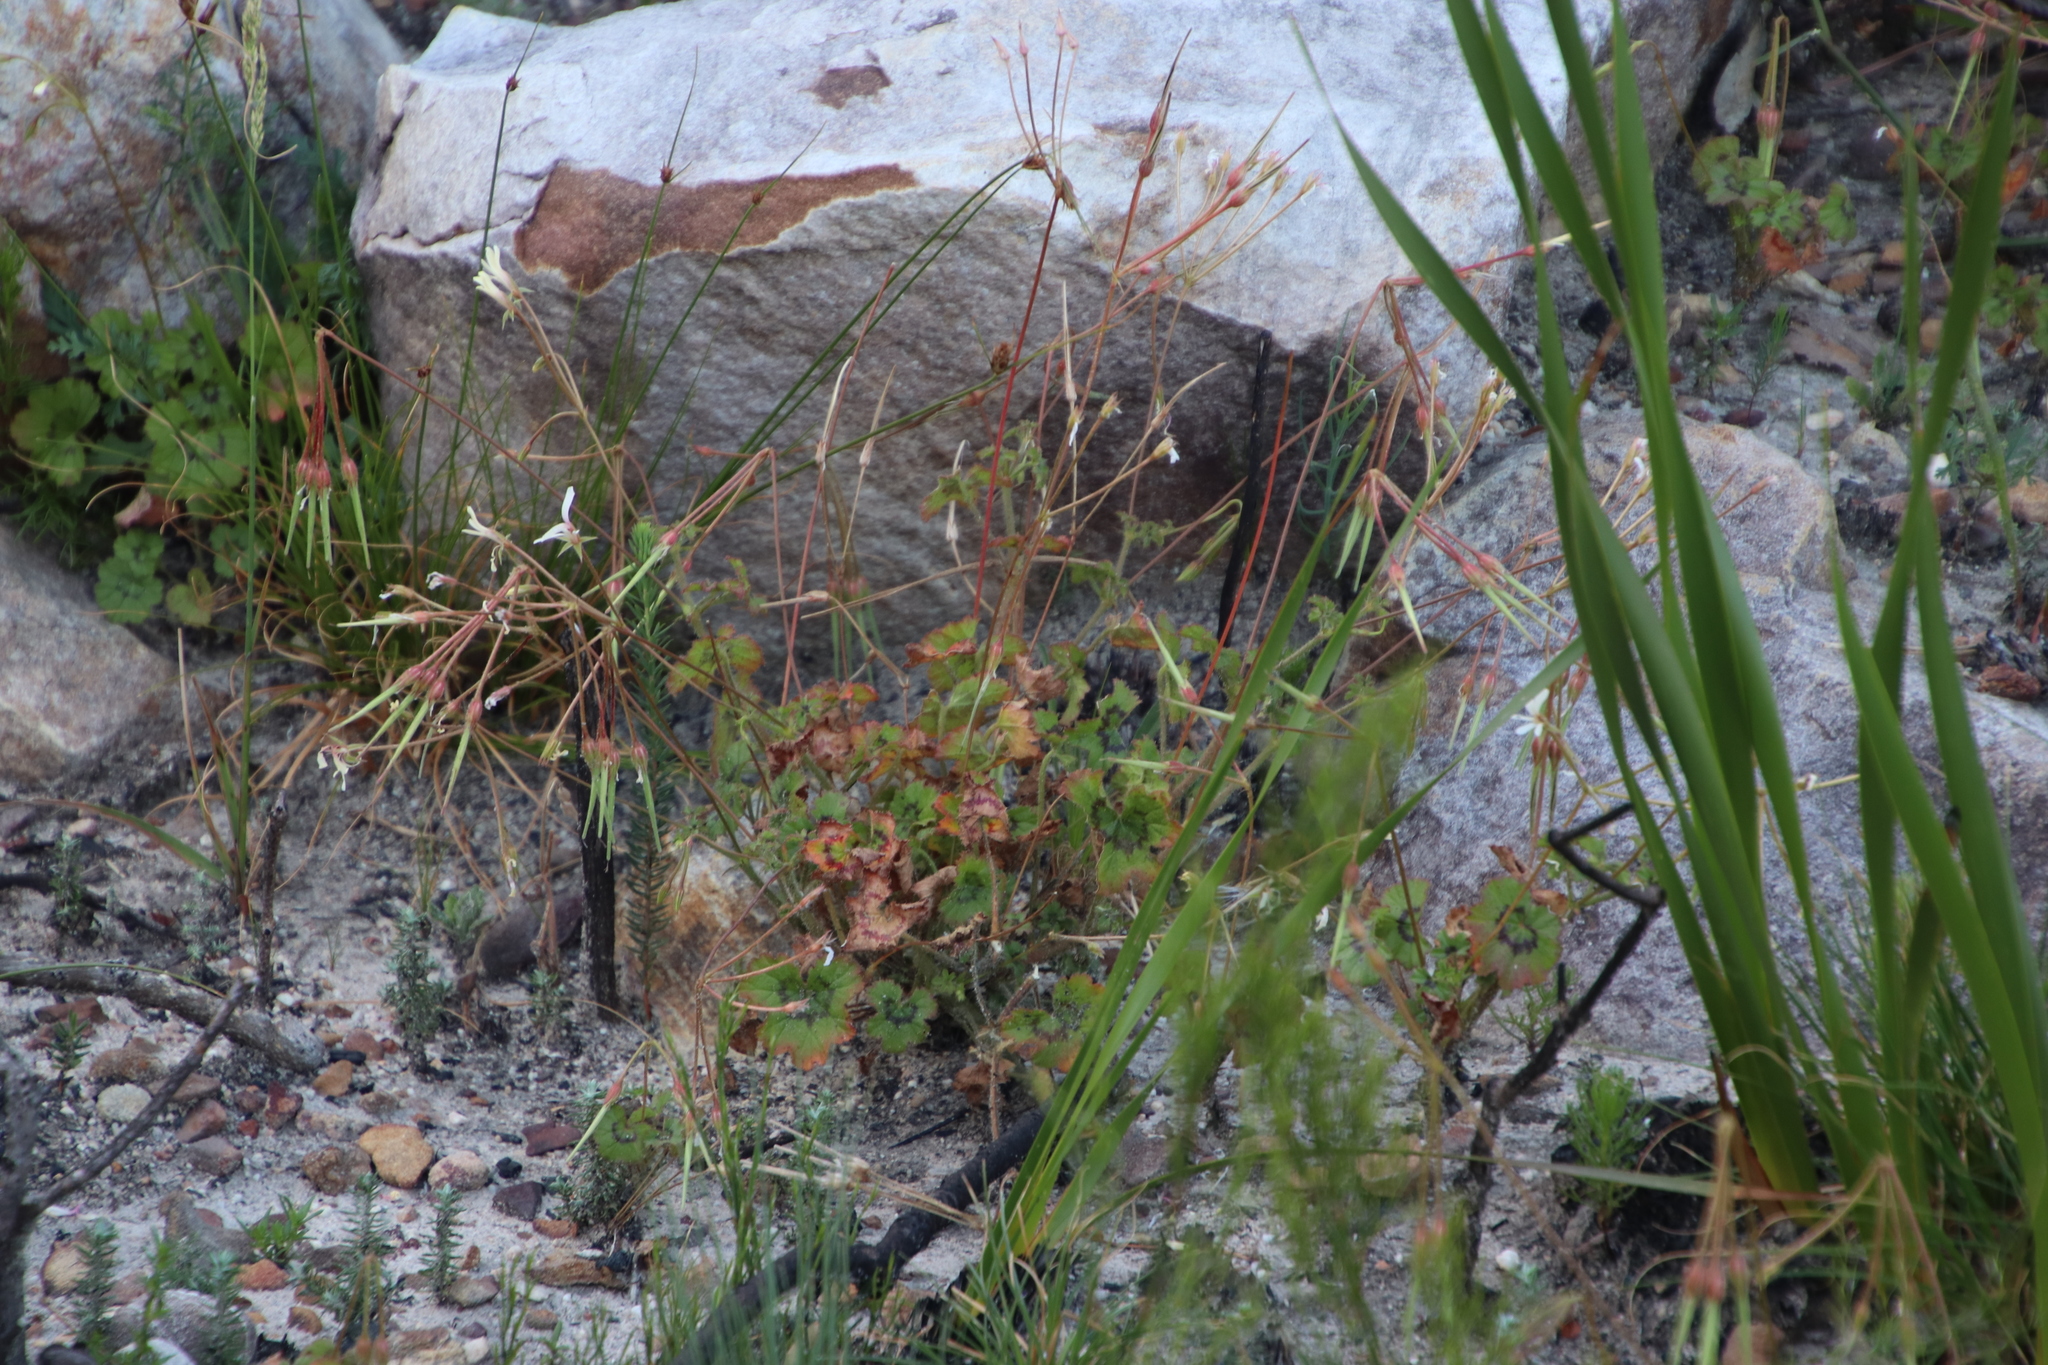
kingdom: Plantae
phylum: Tracheophyta
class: Magnoliopsida
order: Geraniales
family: Geraniaceae
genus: Pelargonium
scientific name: Pelargonium elongatum
